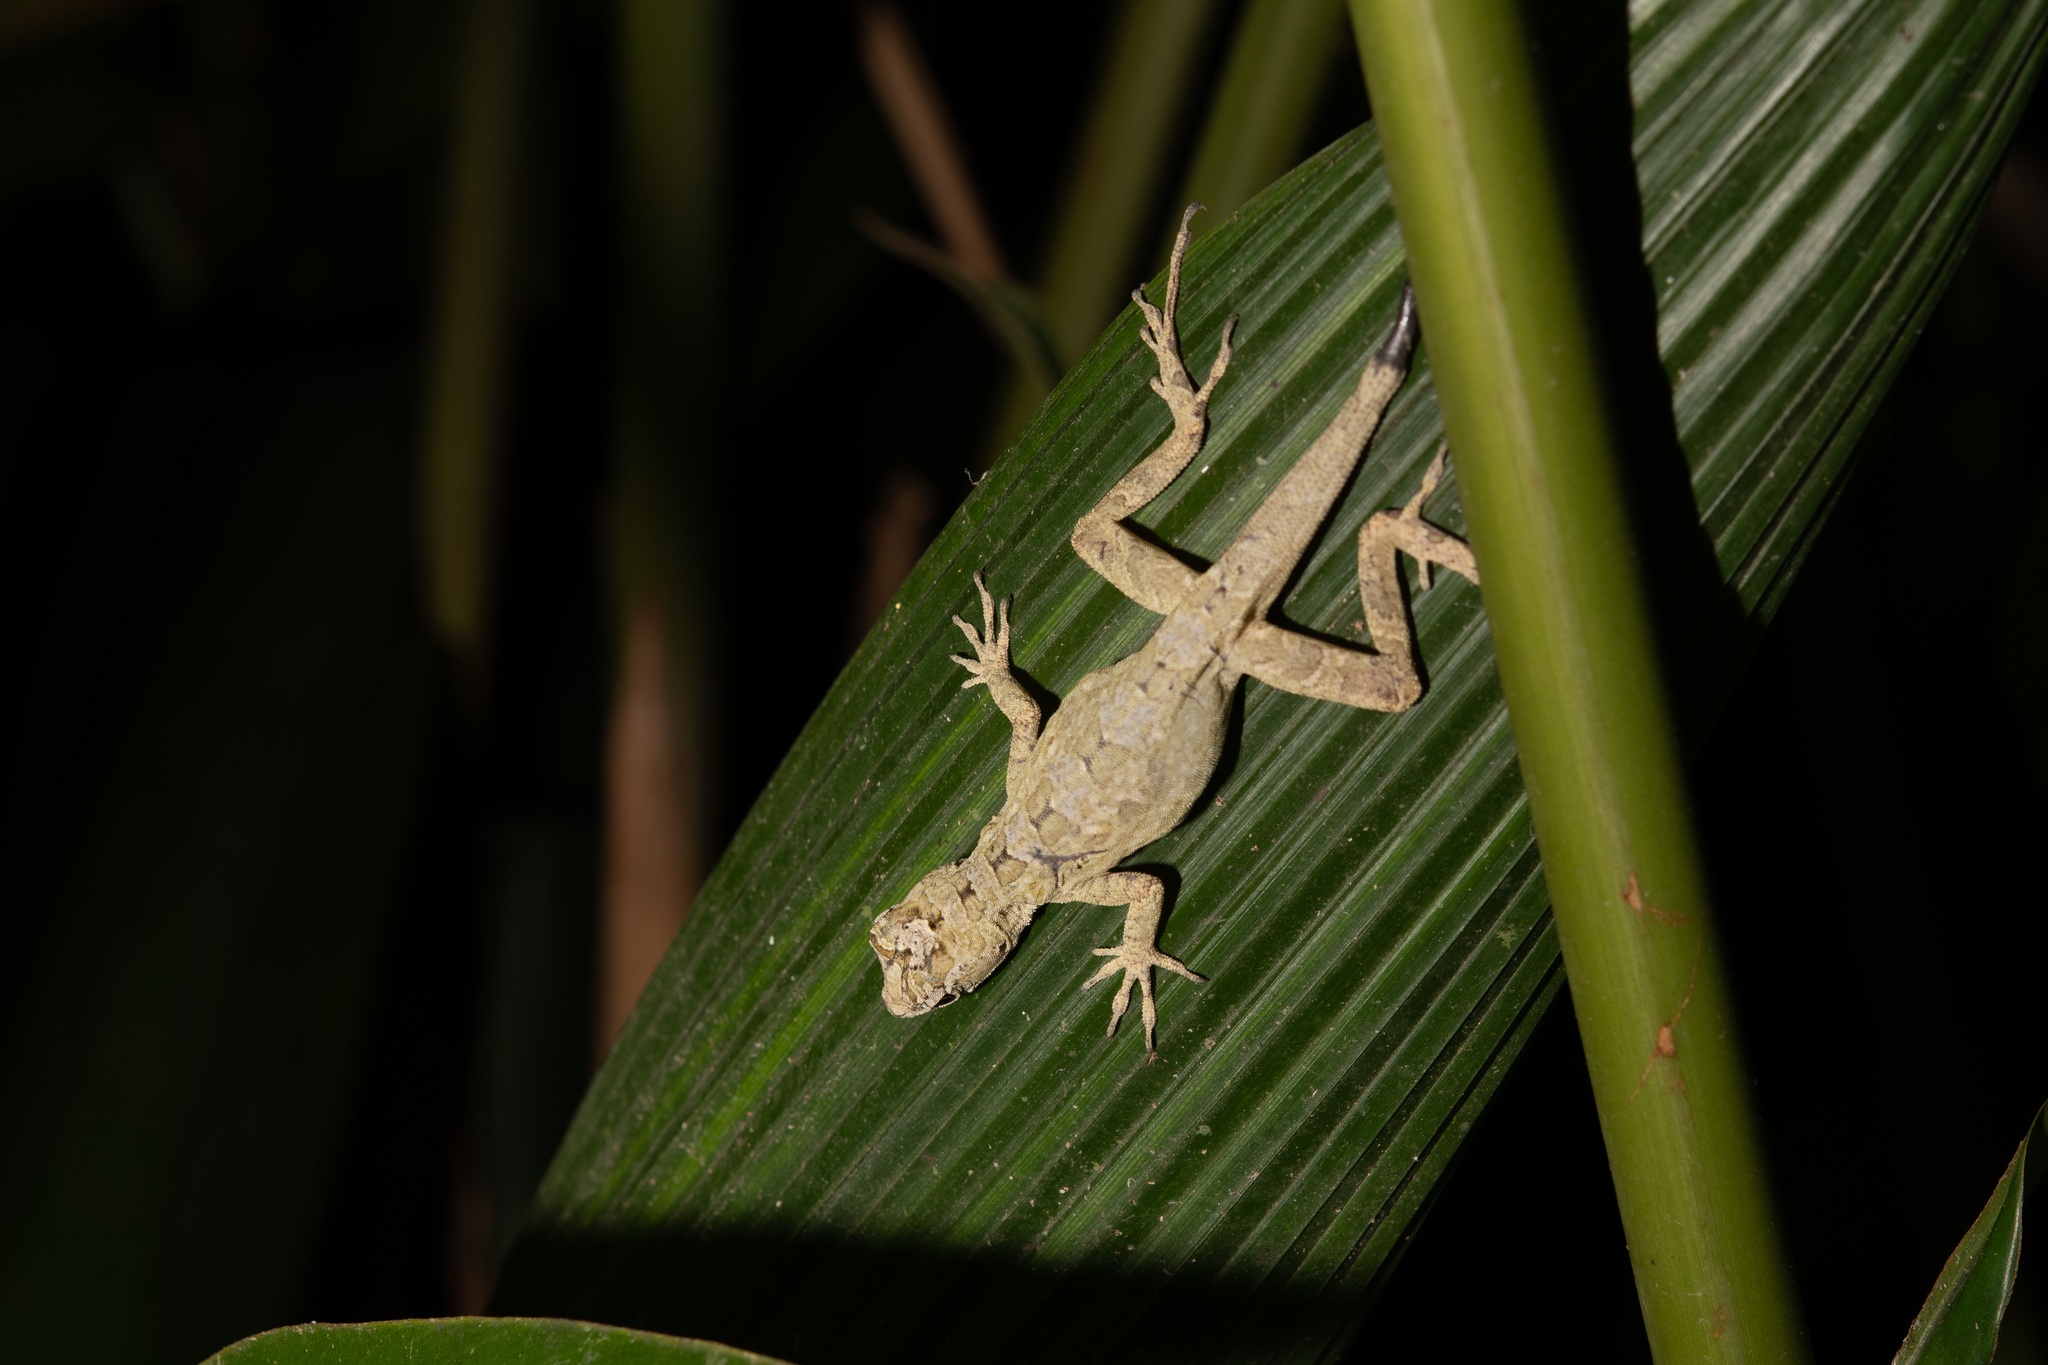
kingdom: Animalia
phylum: Chordata
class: Squamata
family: Dactyloidae
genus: Anolis
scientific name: Anolis lemurinus
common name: Ghost anole
